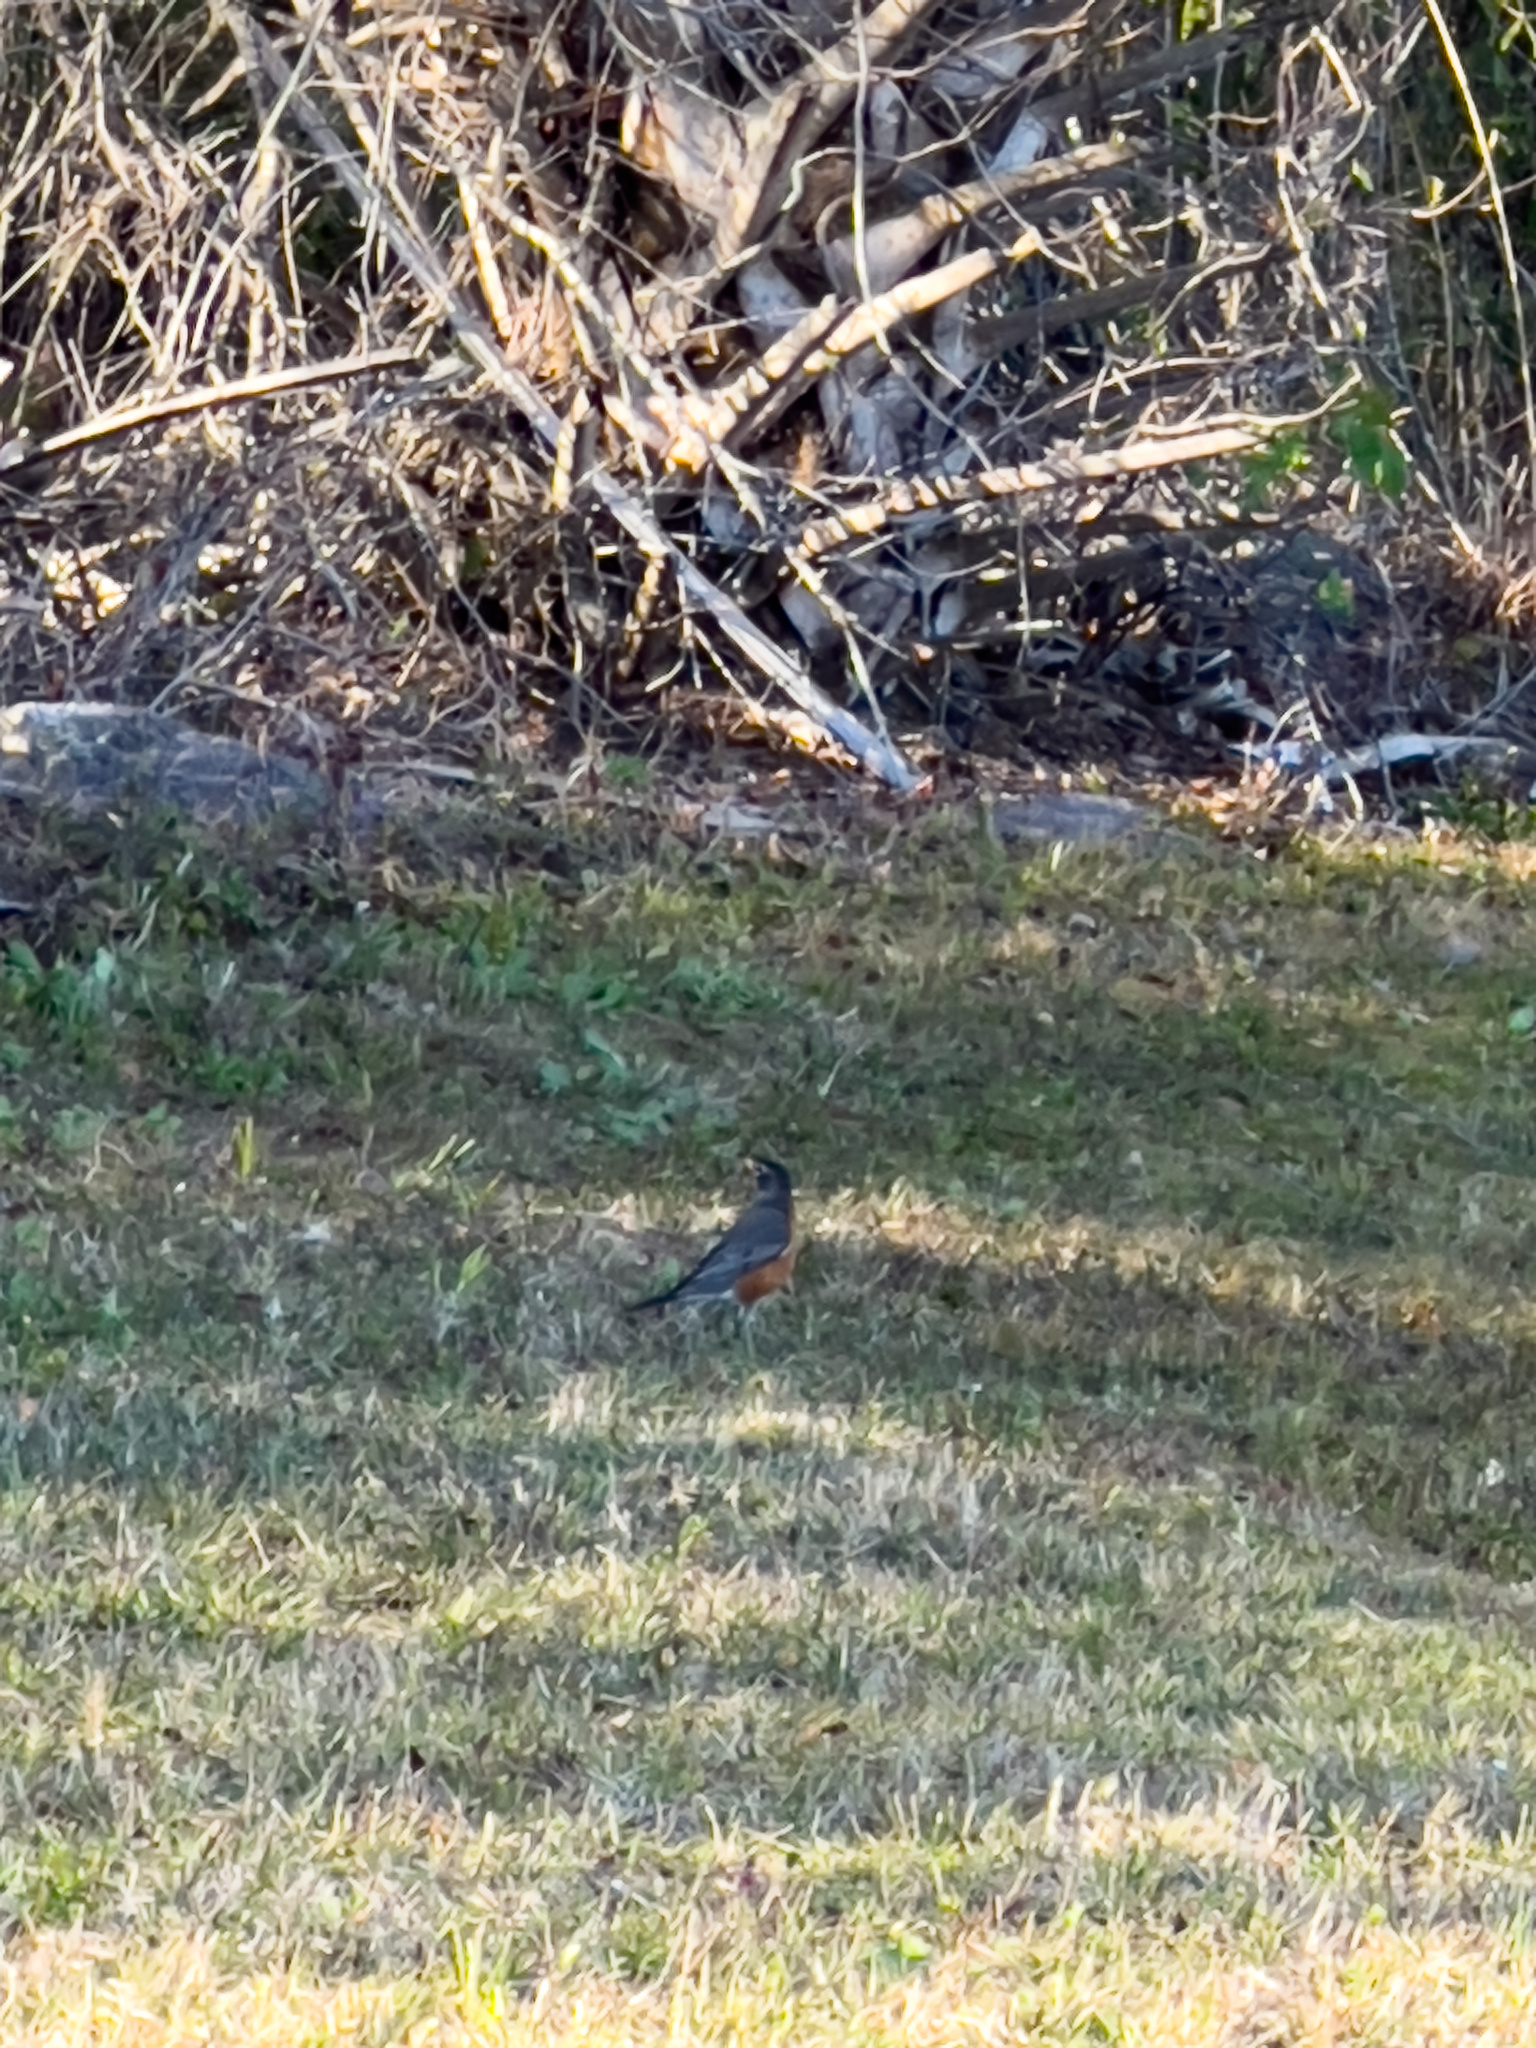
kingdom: Animalia
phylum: Chordata
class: Aves
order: Passeriformes
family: Turdidae
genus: Turdus
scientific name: Turdus migratorius
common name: American robin
